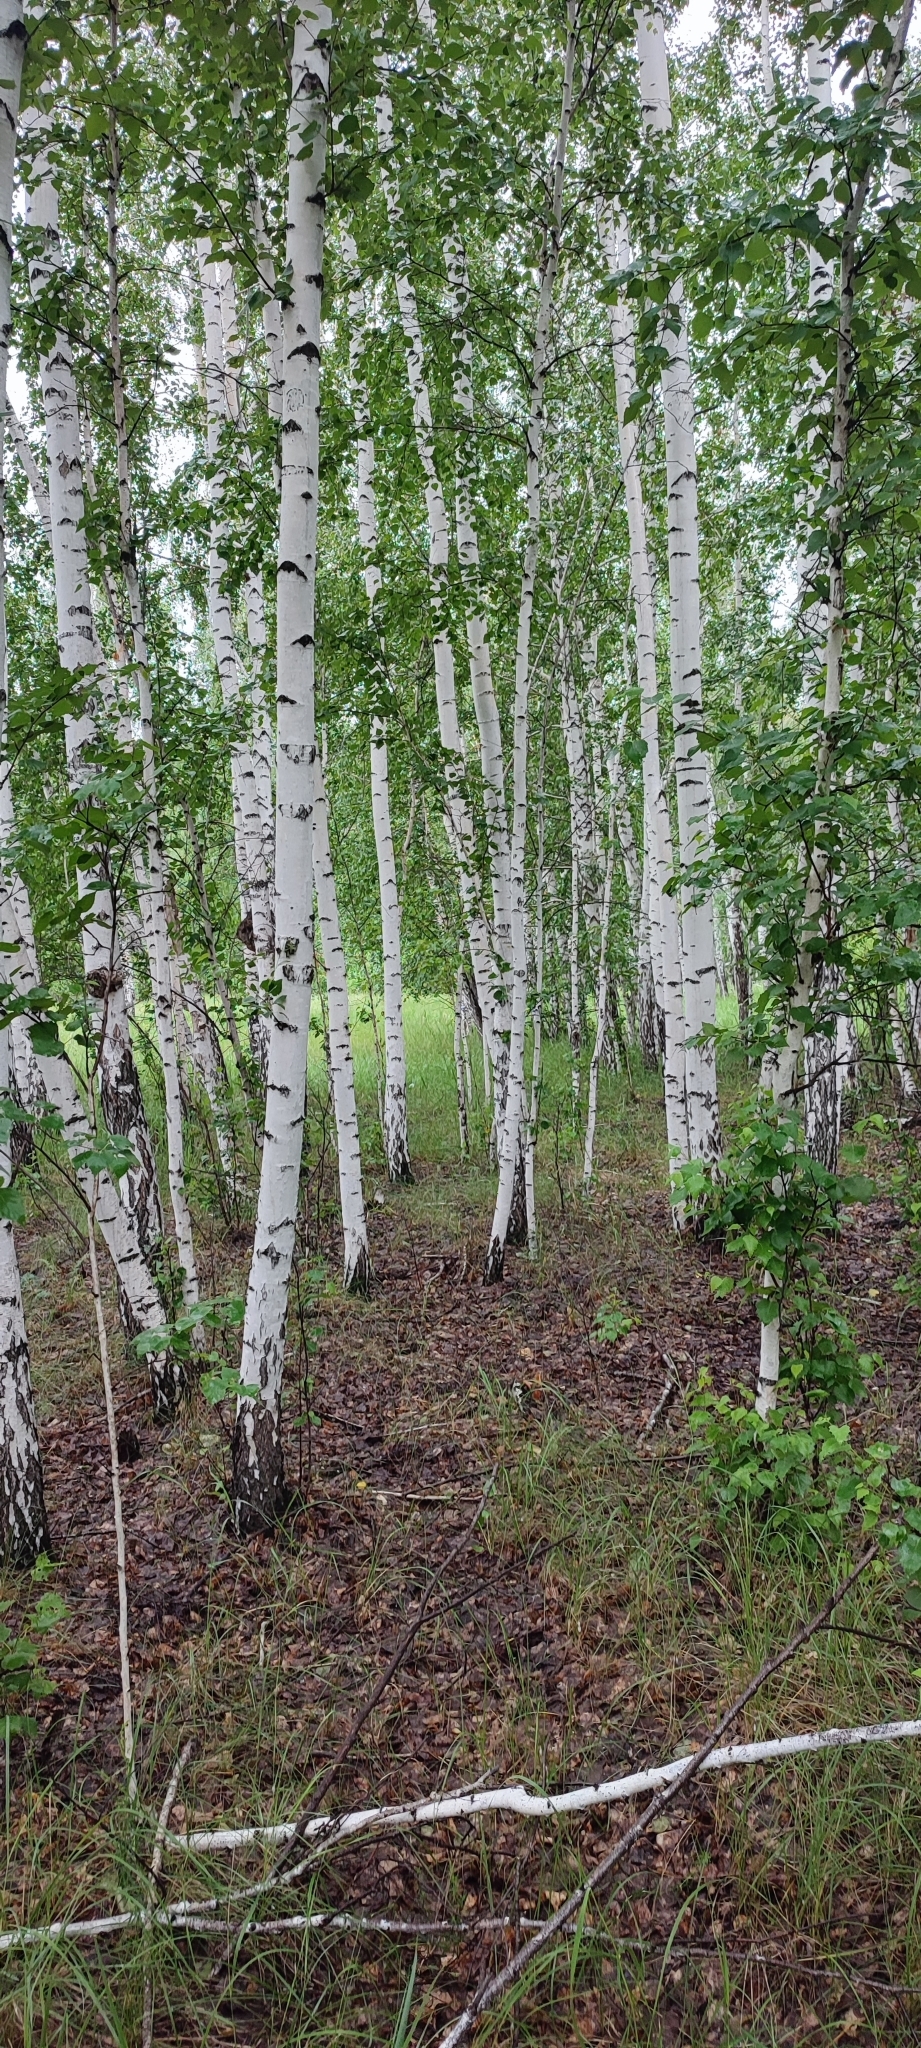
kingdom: Plantae
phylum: Tracheophyta
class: Magnoliopsida
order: Fagales
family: Betulaceae
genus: Betula
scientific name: Betula pendula
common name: Silver birch
